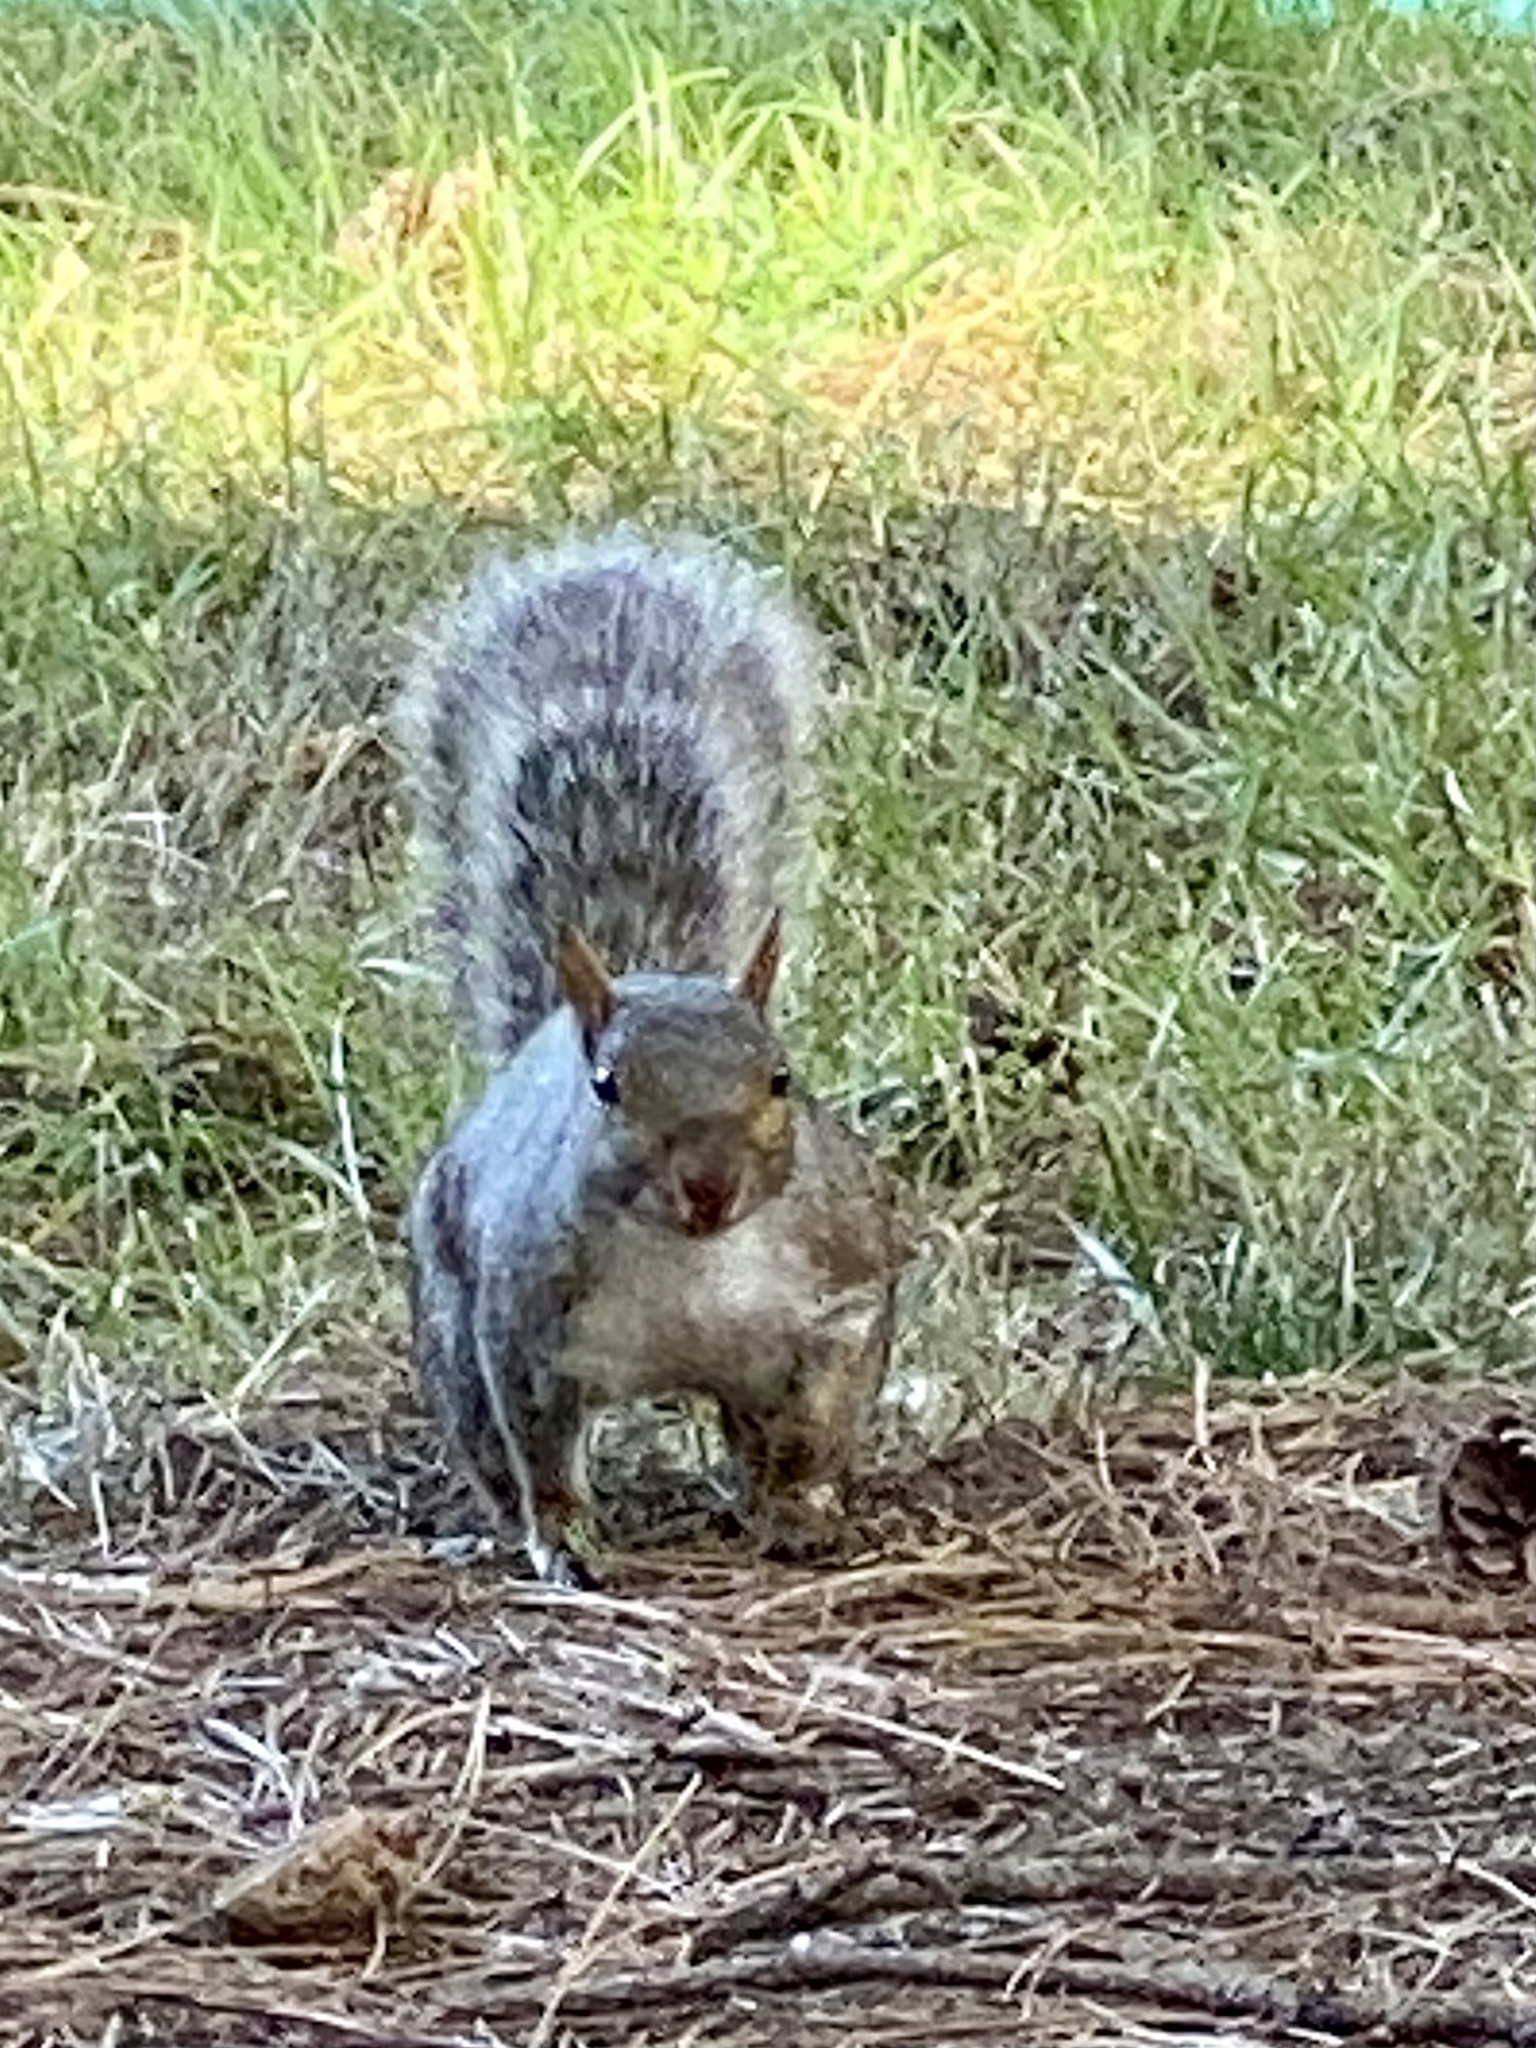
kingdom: Animalia
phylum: Chordata
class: Mammalia
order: Rodentia
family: Sciuridae
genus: Sciurus
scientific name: Sciurus carolinensis
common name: Eastern gray squirrel
